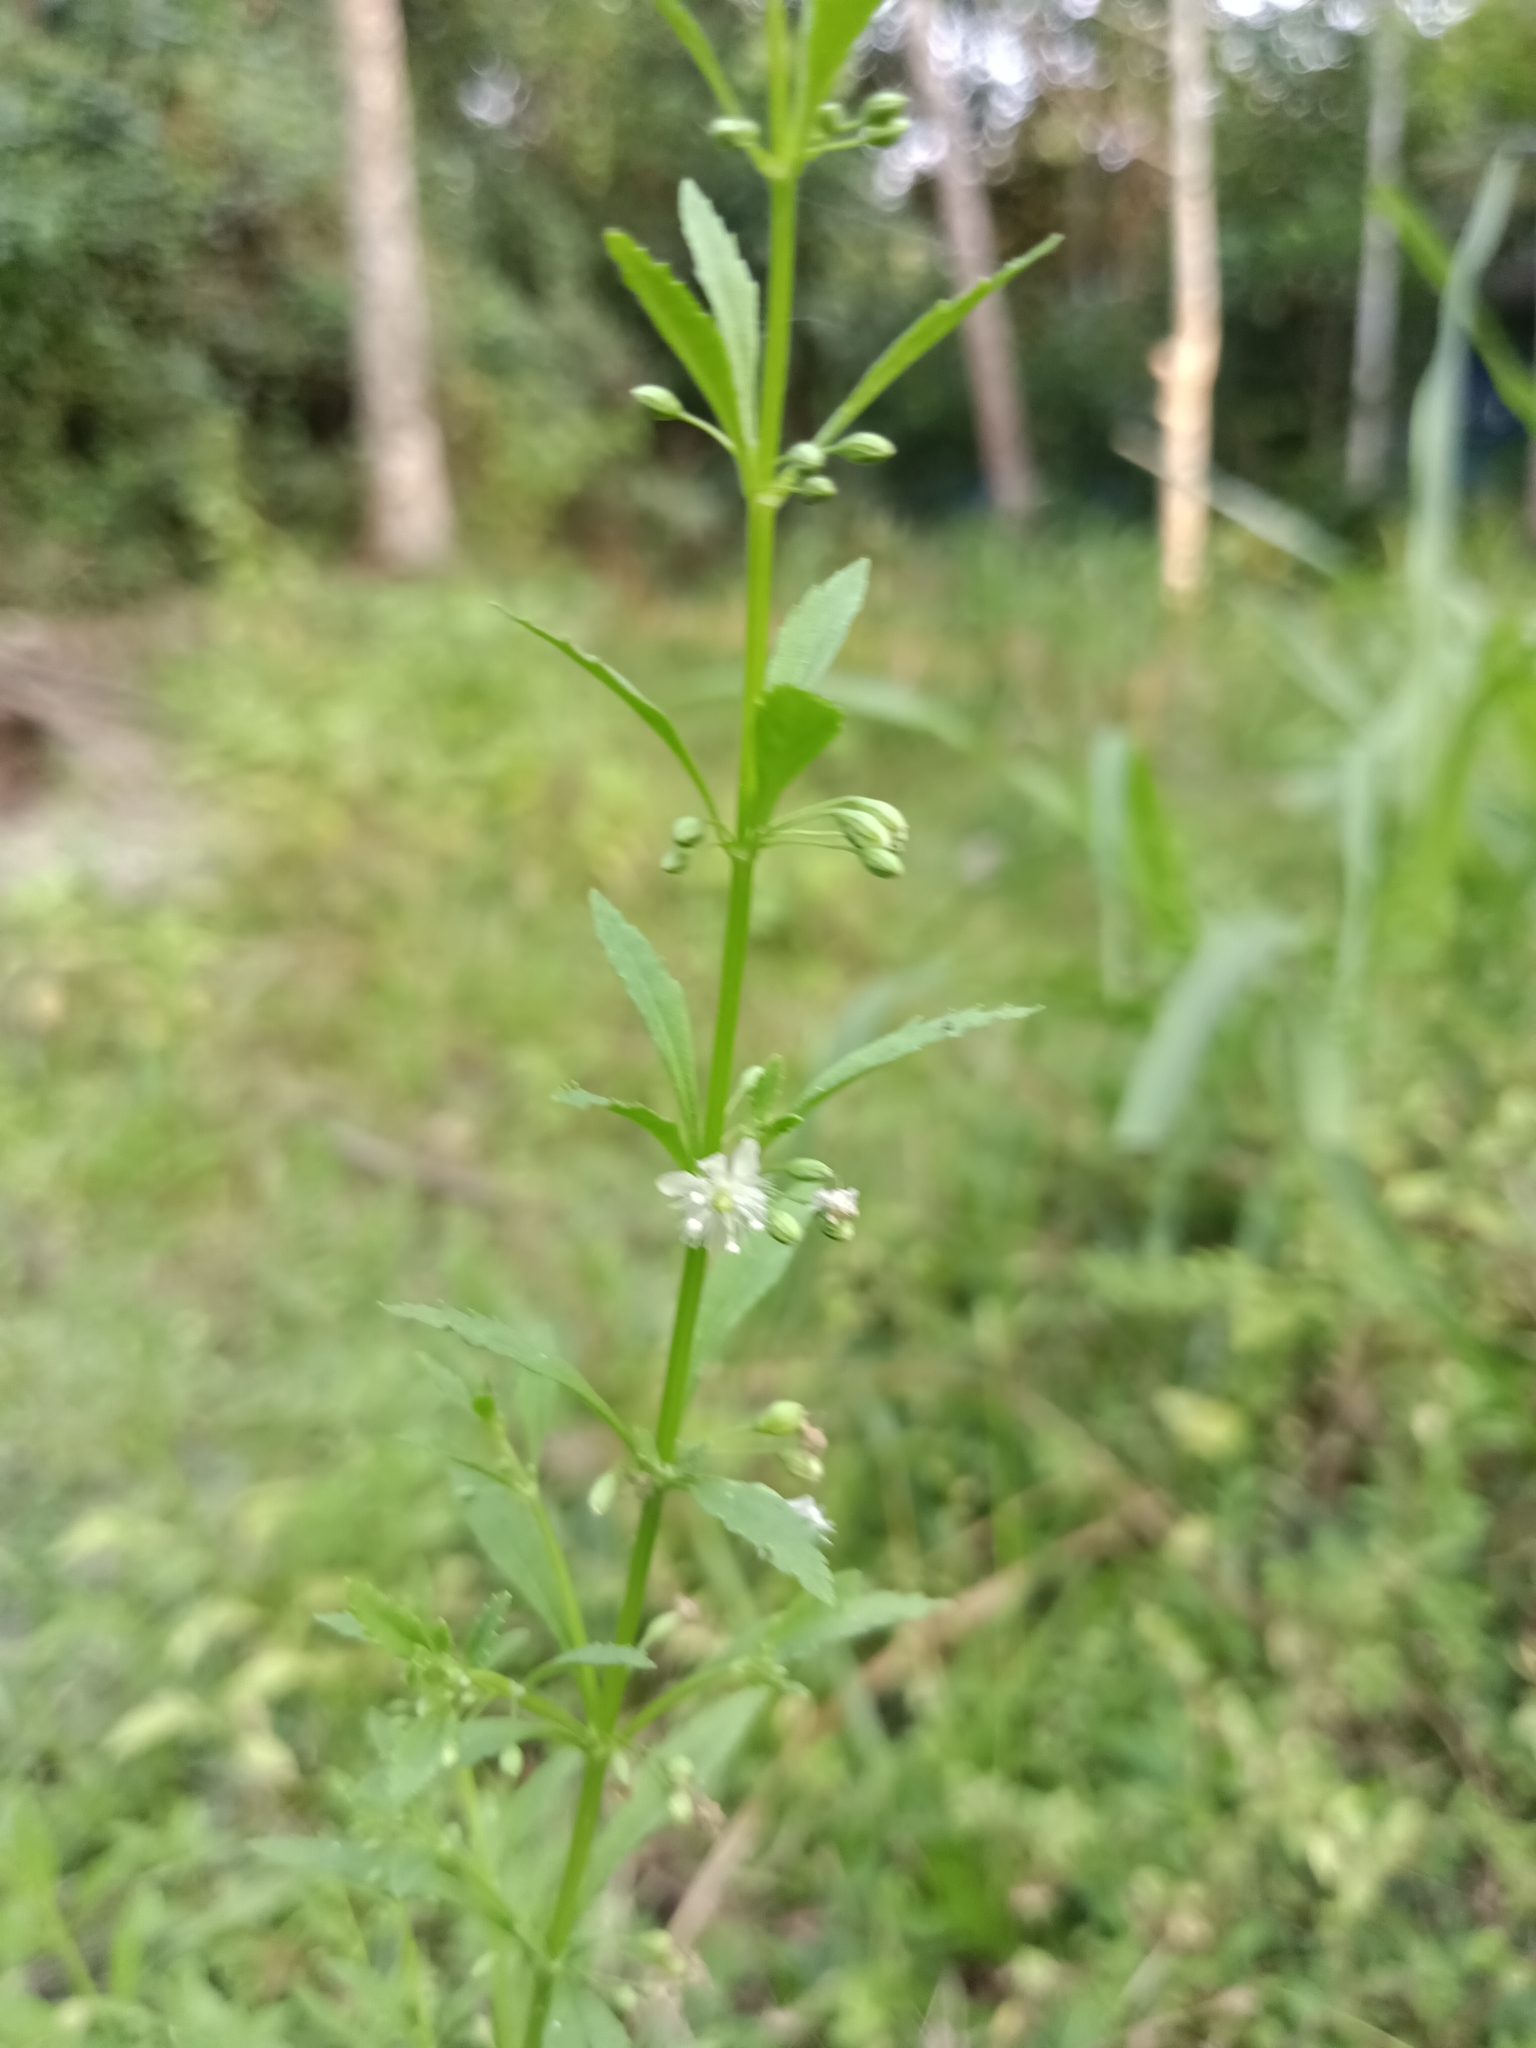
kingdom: Plantae
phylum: Tracheophyta
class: Magnoliopsida
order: Lamiales
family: Plantaginaceae
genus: Scoparia
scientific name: Scoparia dulcis
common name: Scoparia-weed
